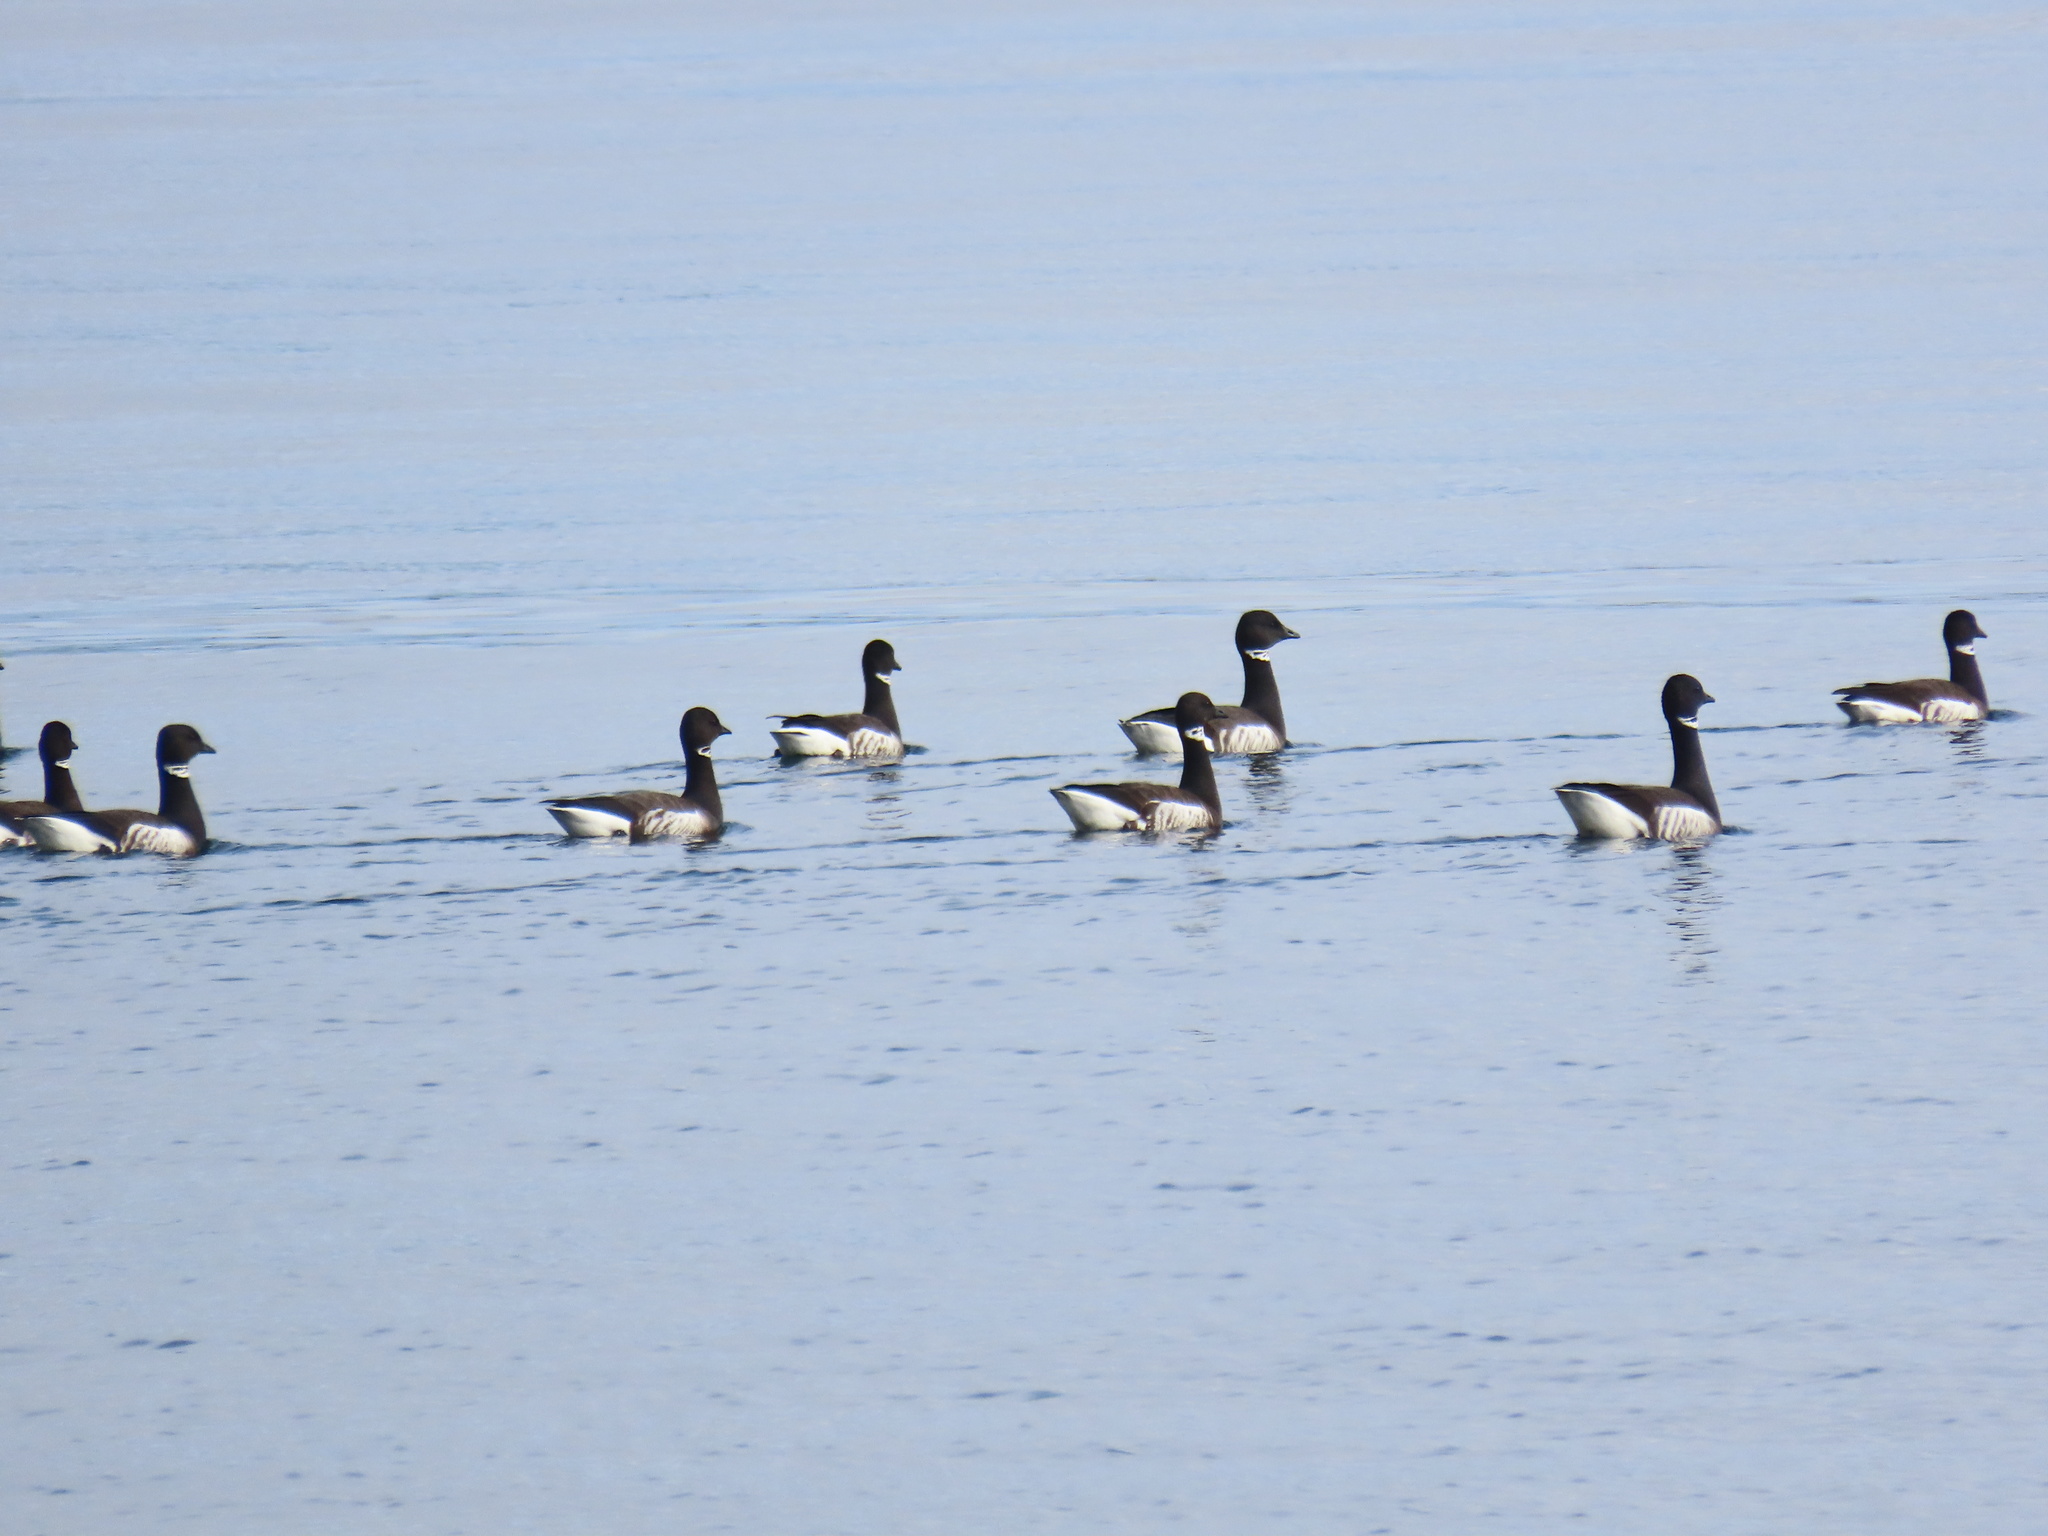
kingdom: Animalia
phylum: Chordata
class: Aves
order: Anseriformes
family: Anatidae
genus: Branta
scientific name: Branta bernicla
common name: Brant goose
